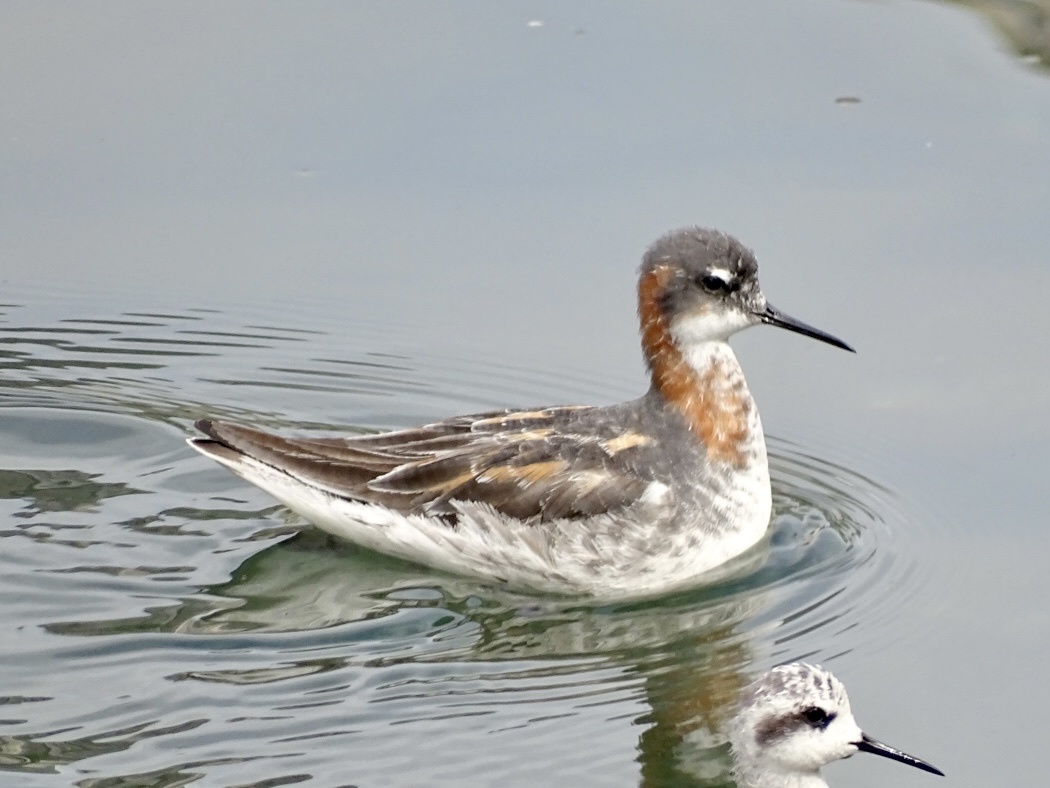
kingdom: Animalia
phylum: Chordata
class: Aves
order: Charadriiformes
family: Scolopacidae
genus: Phalaropus
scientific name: Phalaropus lobatus
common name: Red-necked phalarope
